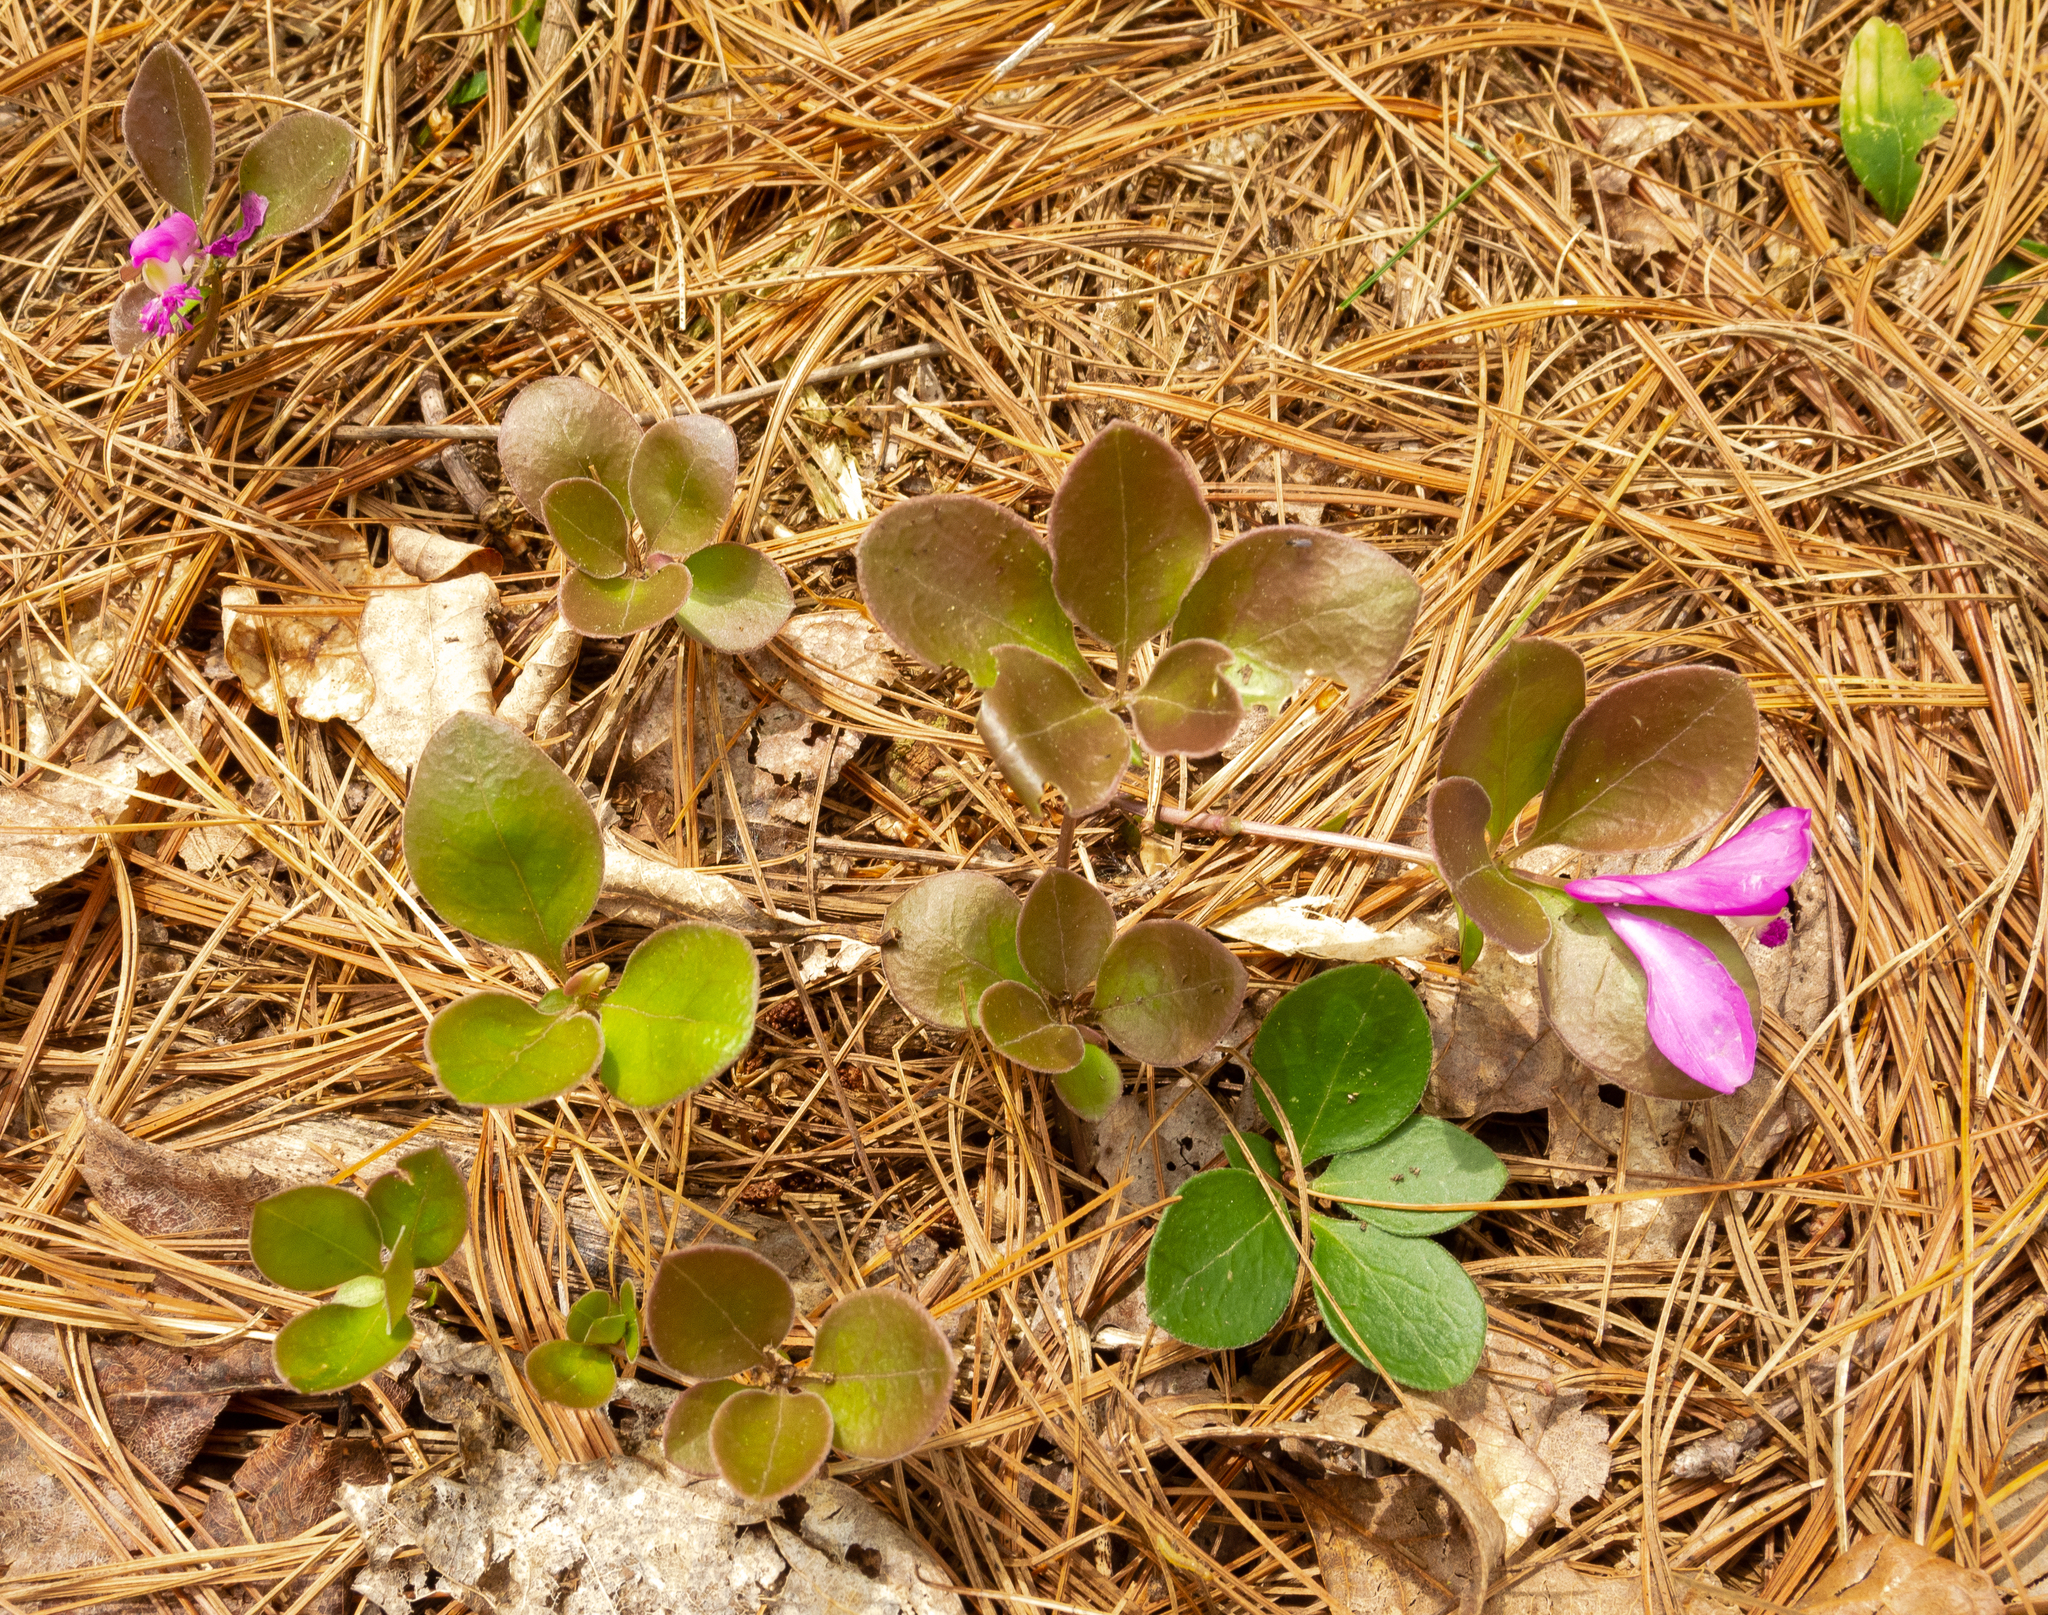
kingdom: Plantae
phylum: Tracheophyta
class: Magnoliopsida
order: Fabales
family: Polygalaceae
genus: Polygaloides
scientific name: Polygaloides paucifolia
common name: Bird-on-the-wing
